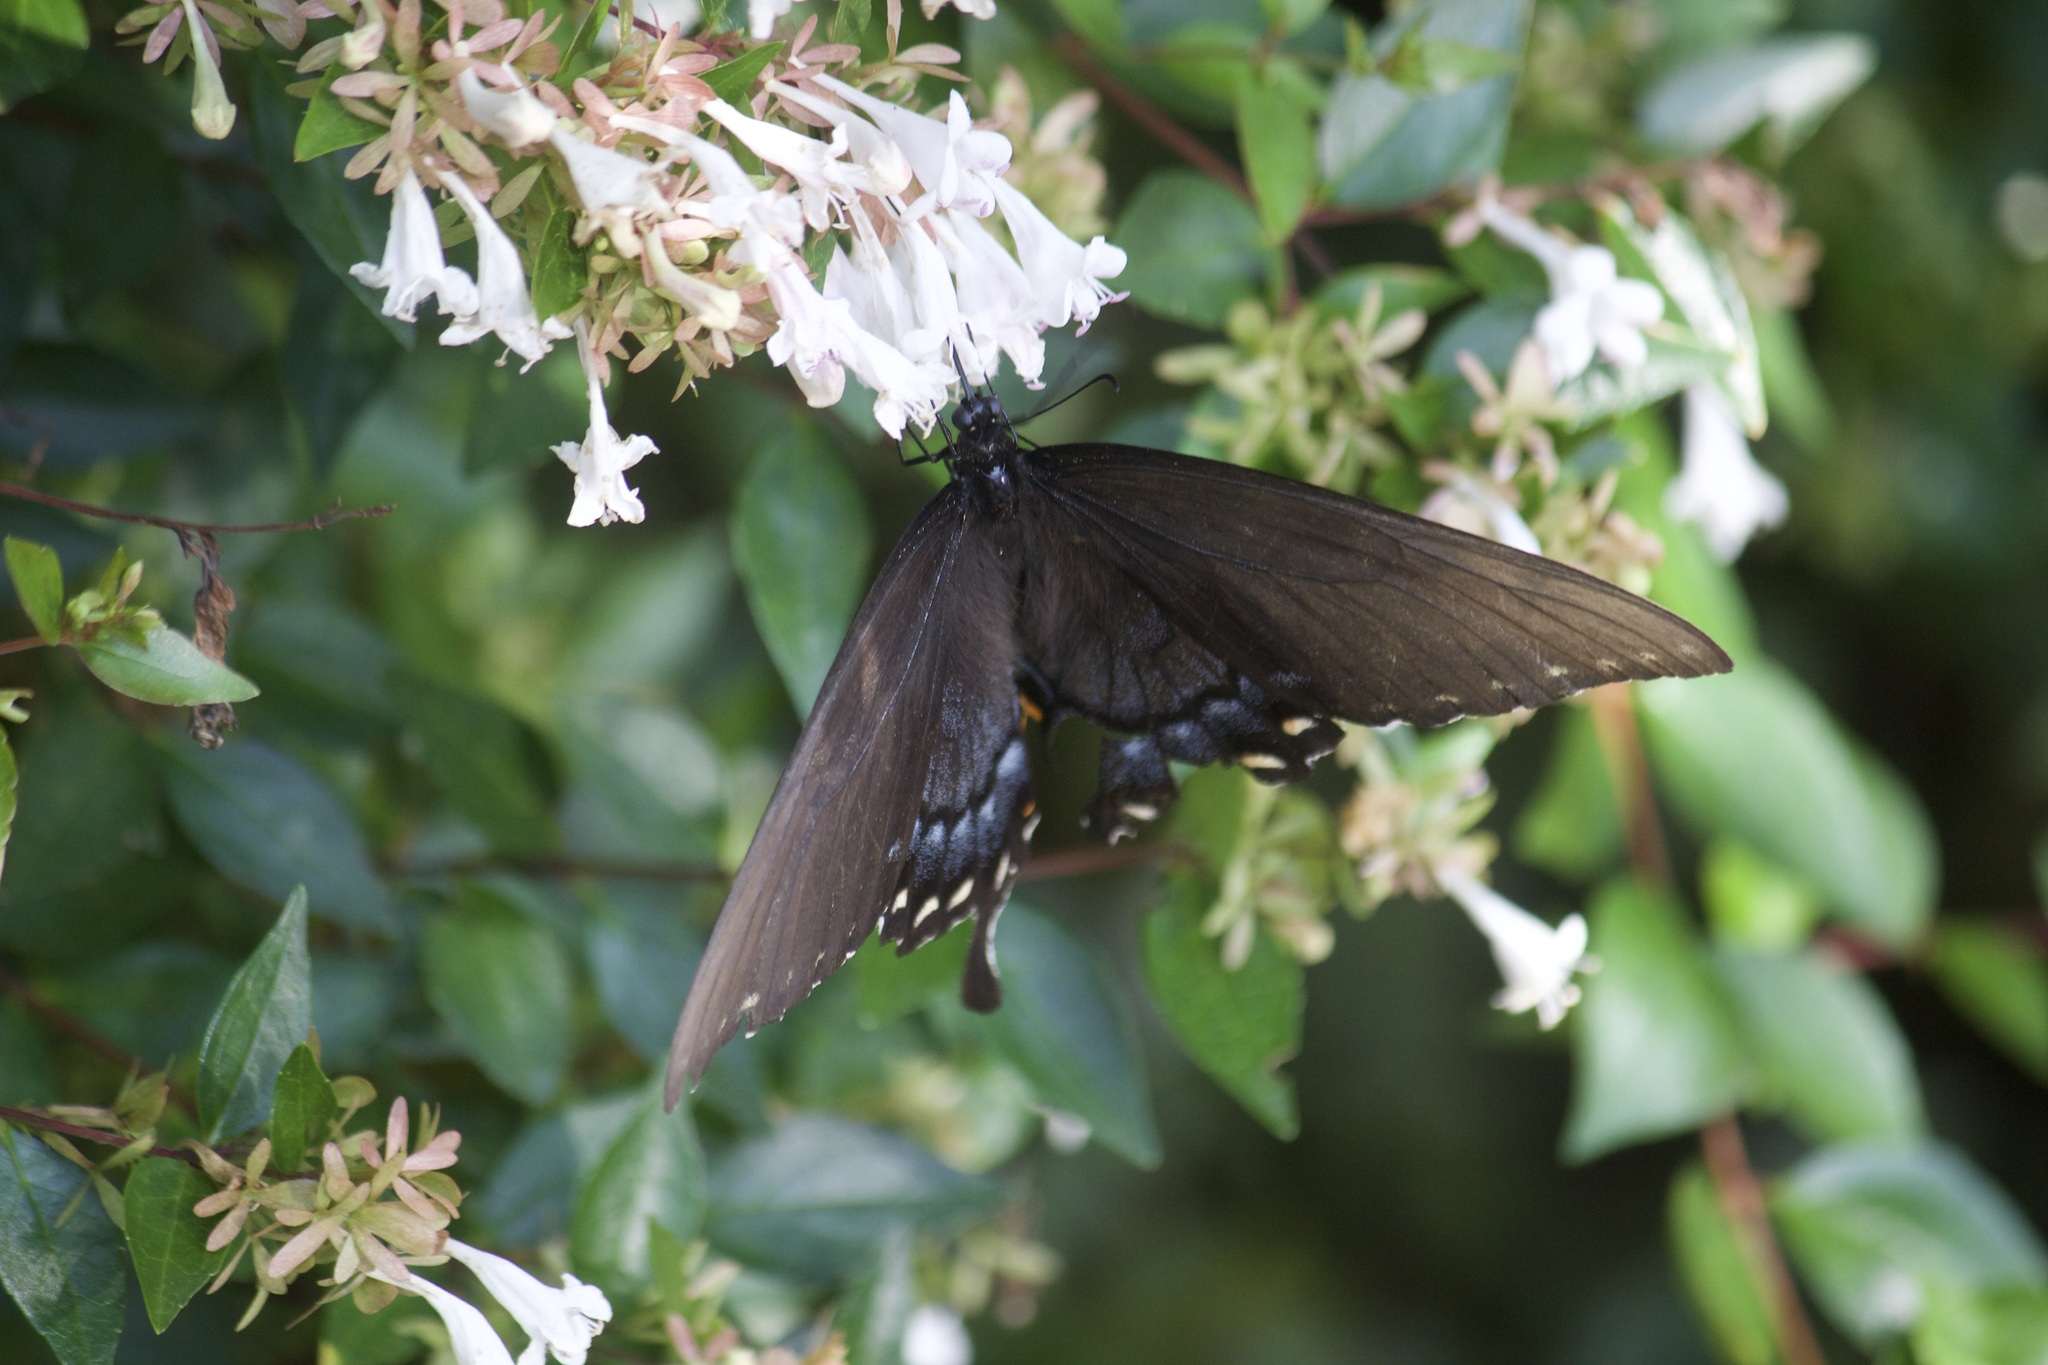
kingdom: Animalia
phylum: Arthropoda
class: Insecta
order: Lepidoptera
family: Papilionidae
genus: Papilio
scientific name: Papilio glaucus
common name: Tiger swallowtail
